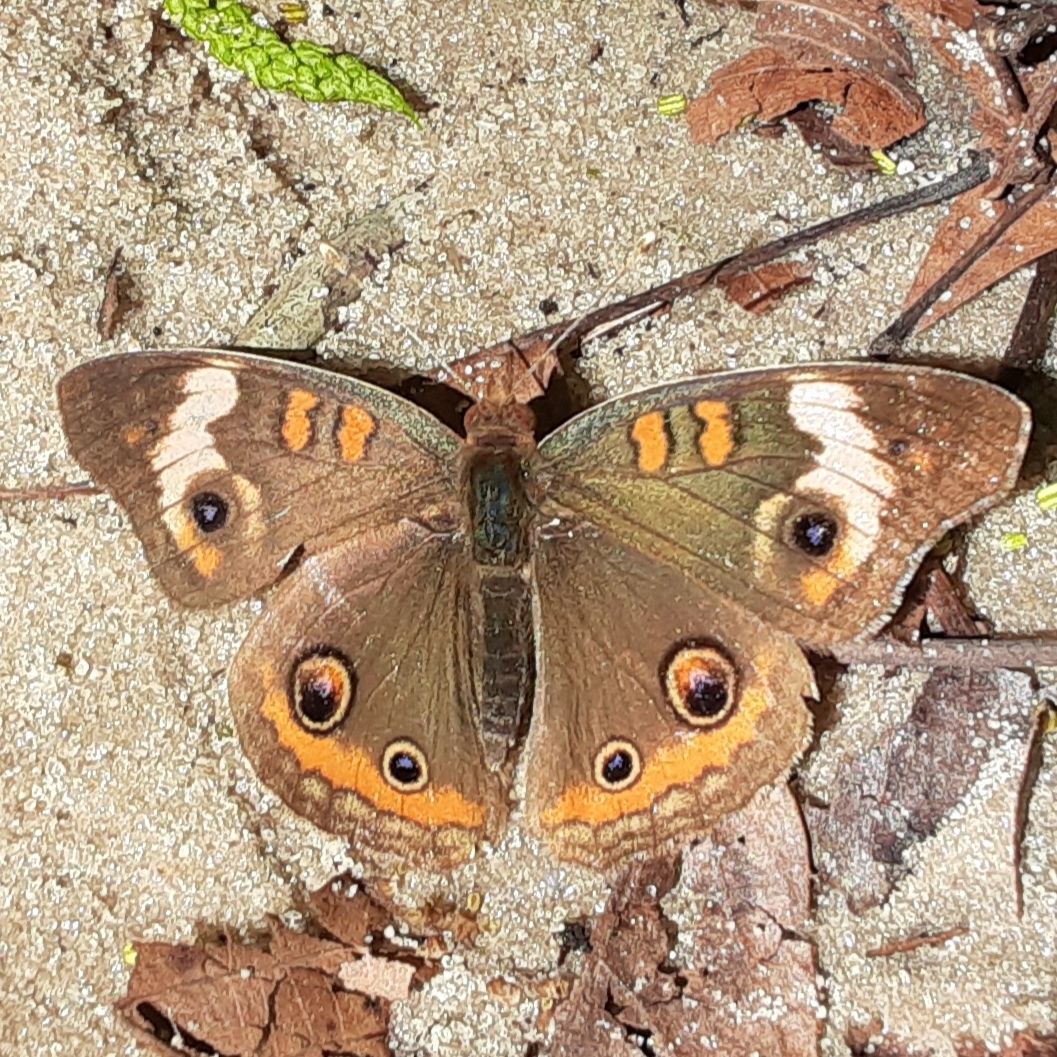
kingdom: Animalia
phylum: Arthropoda
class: Insecta
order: Lepidoptera
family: Nymphalidae
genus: Junonia
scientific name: Junonia coenia
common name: Common buckeye
